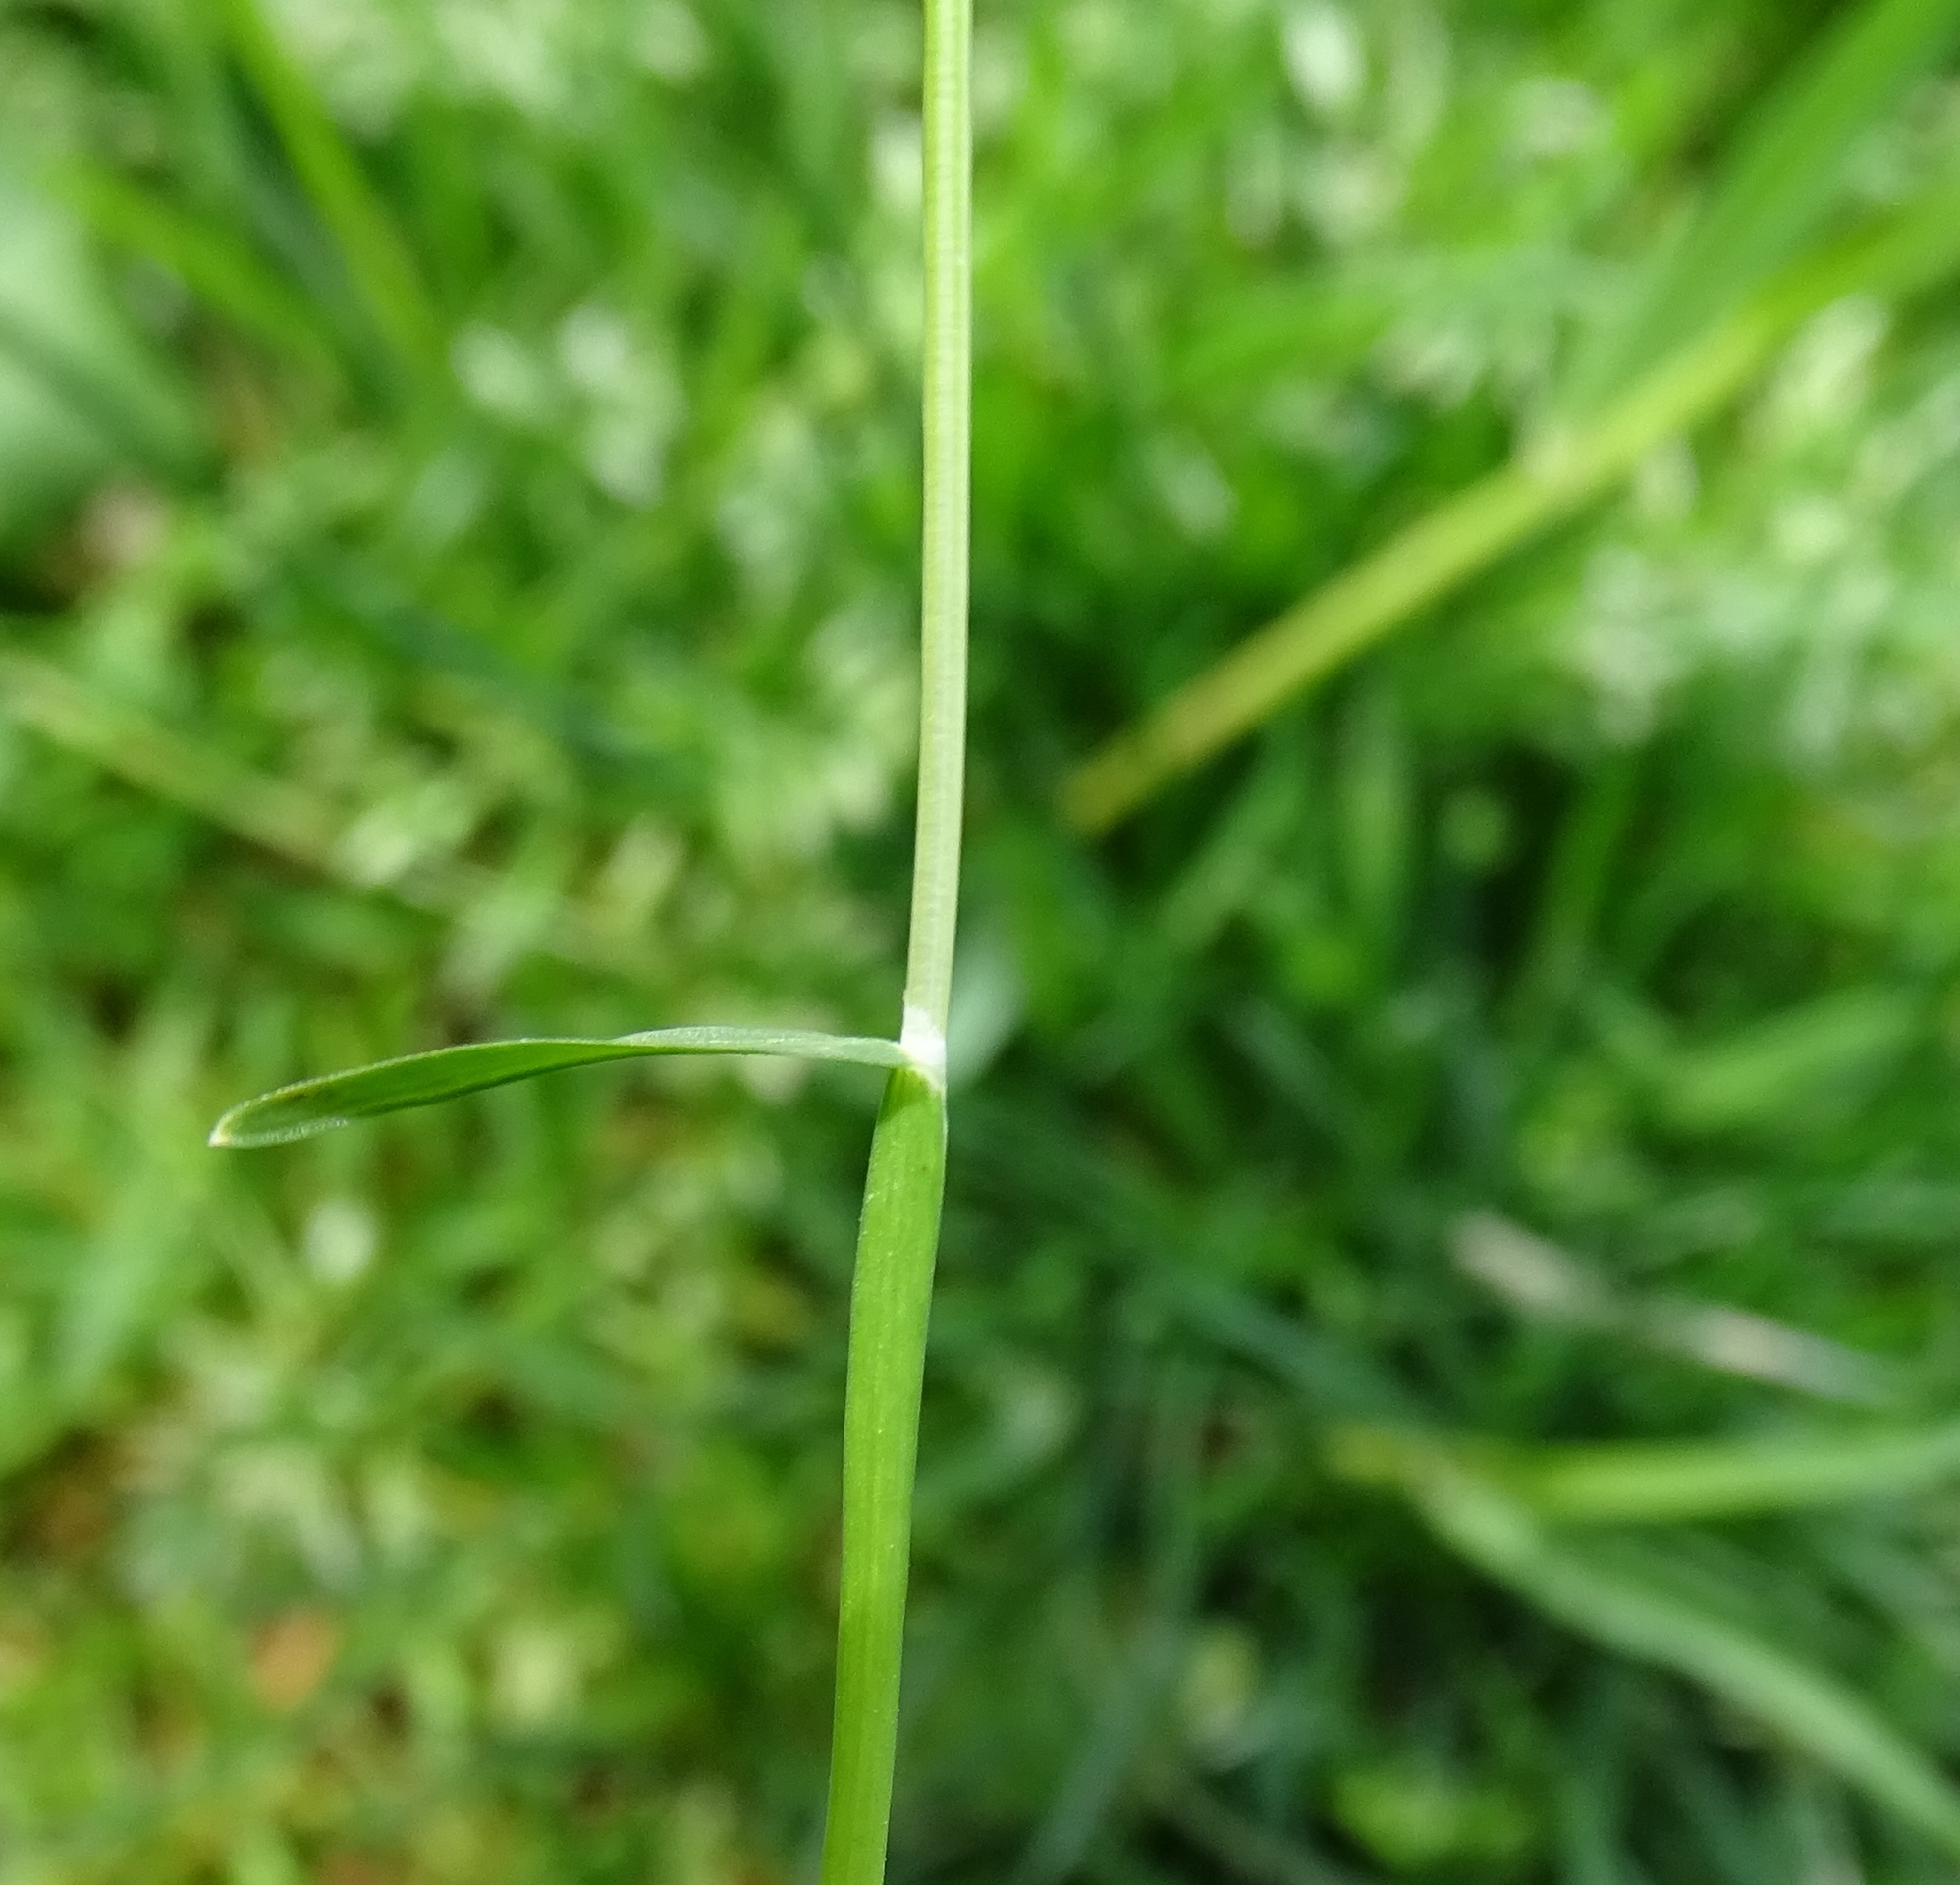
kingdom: Plantae
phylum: Tracheophyta
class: Liliopsida
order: Poales
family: Poaceae
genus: Poa
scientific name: Poa pratensis
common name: Kentucky bluegrass
